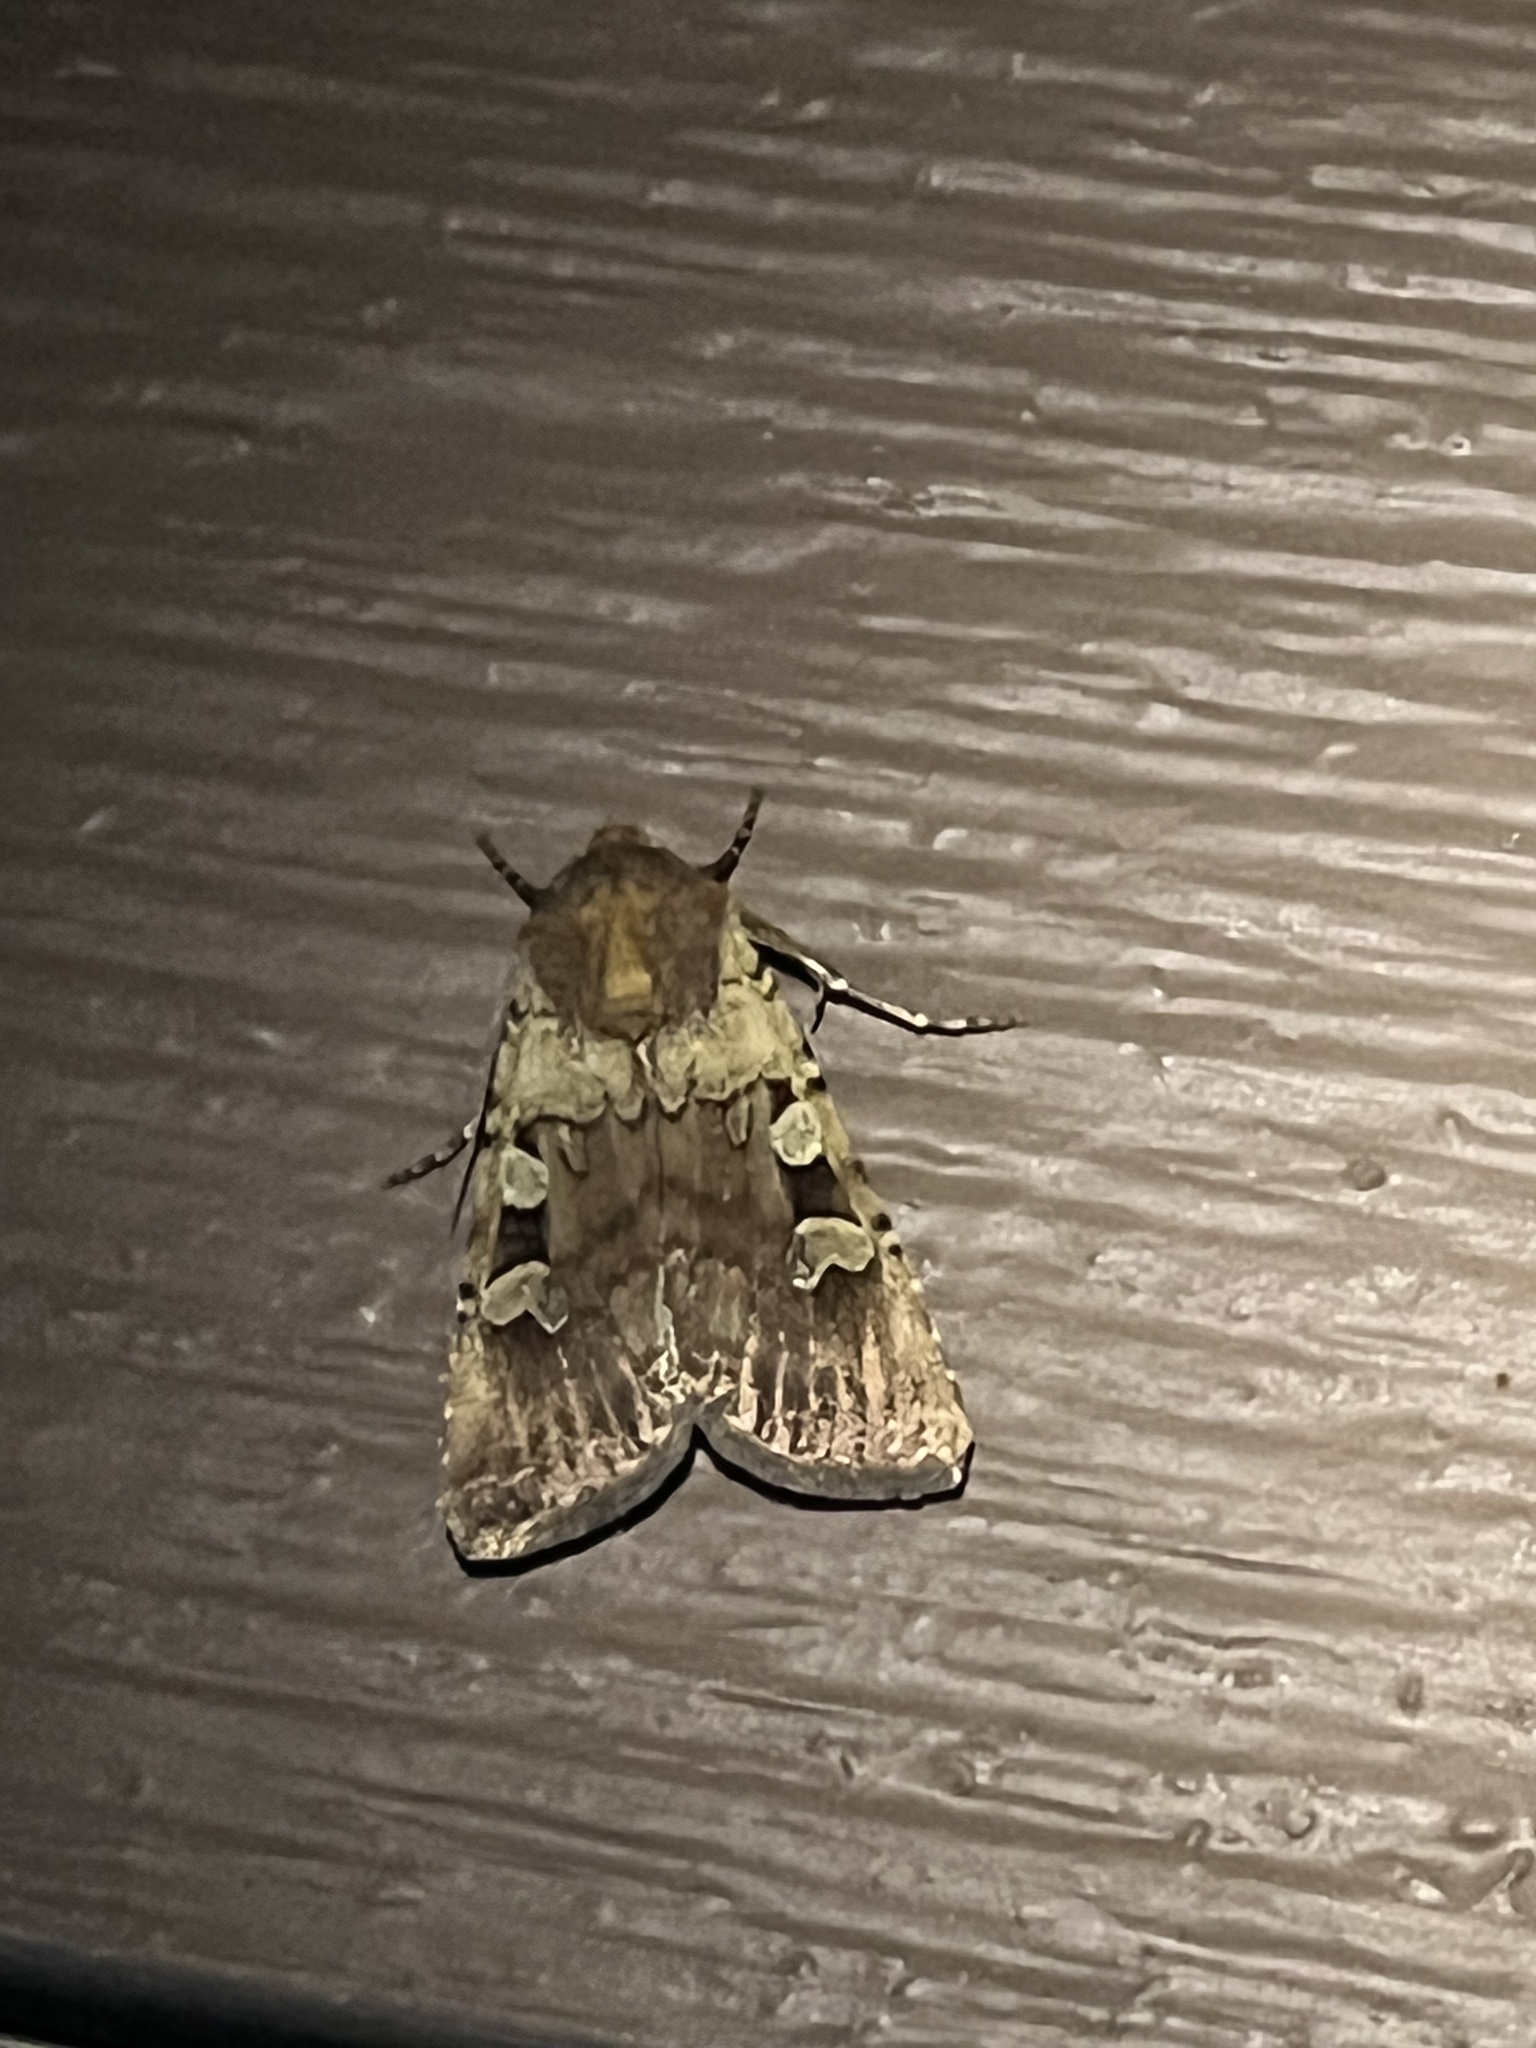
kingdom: Animalia
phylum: Arthropoda
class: Insecta
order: Lepidoptera
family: Noctuidae
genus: Euxoa
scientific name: Euxoa basalis
